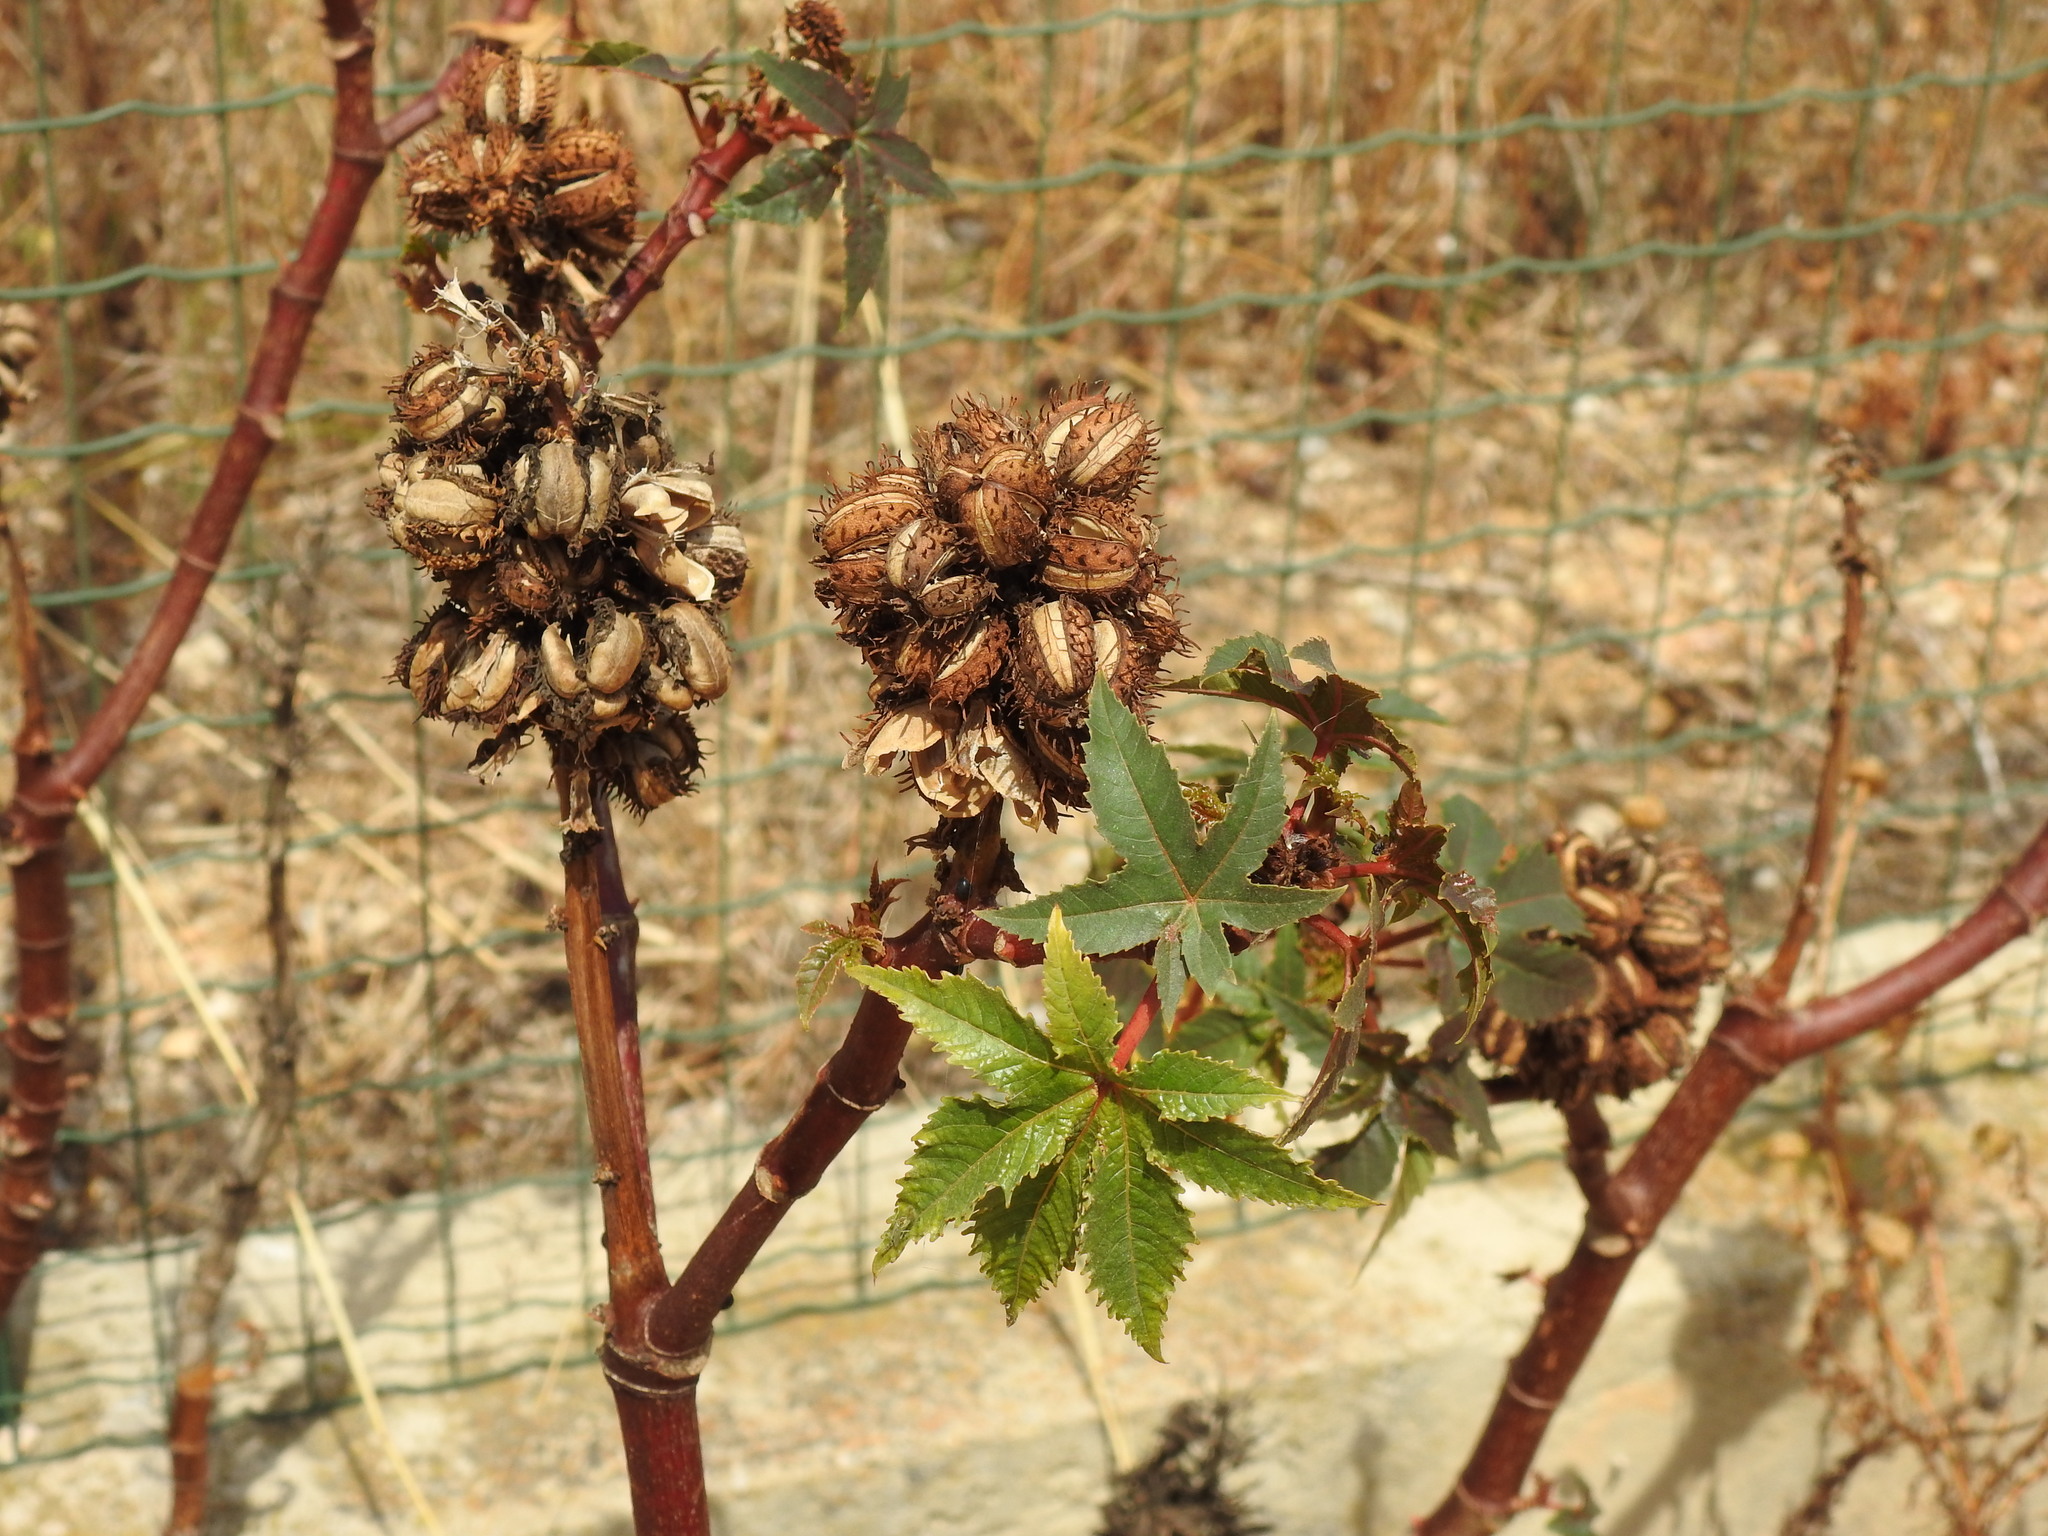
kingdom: Plantae
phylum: Tracheophyta
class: Magnoliopsida
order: Malpighiales
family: Euphorbiaceae
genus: Ricinus
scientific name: Ricinus communis
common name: Castor-oil-plant
